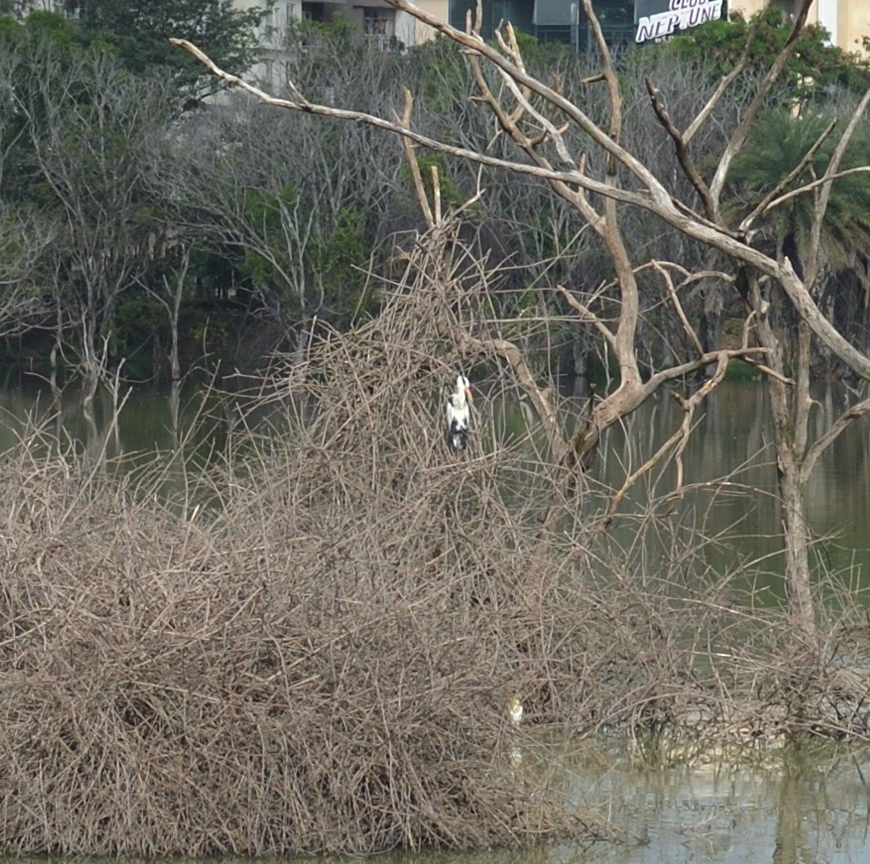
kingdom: Animalia
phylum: Chordata
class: Aves
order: Pelecaniformes
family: Ardeidae
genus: Ardea
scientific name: Ardea cinerea
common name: Grey heron
